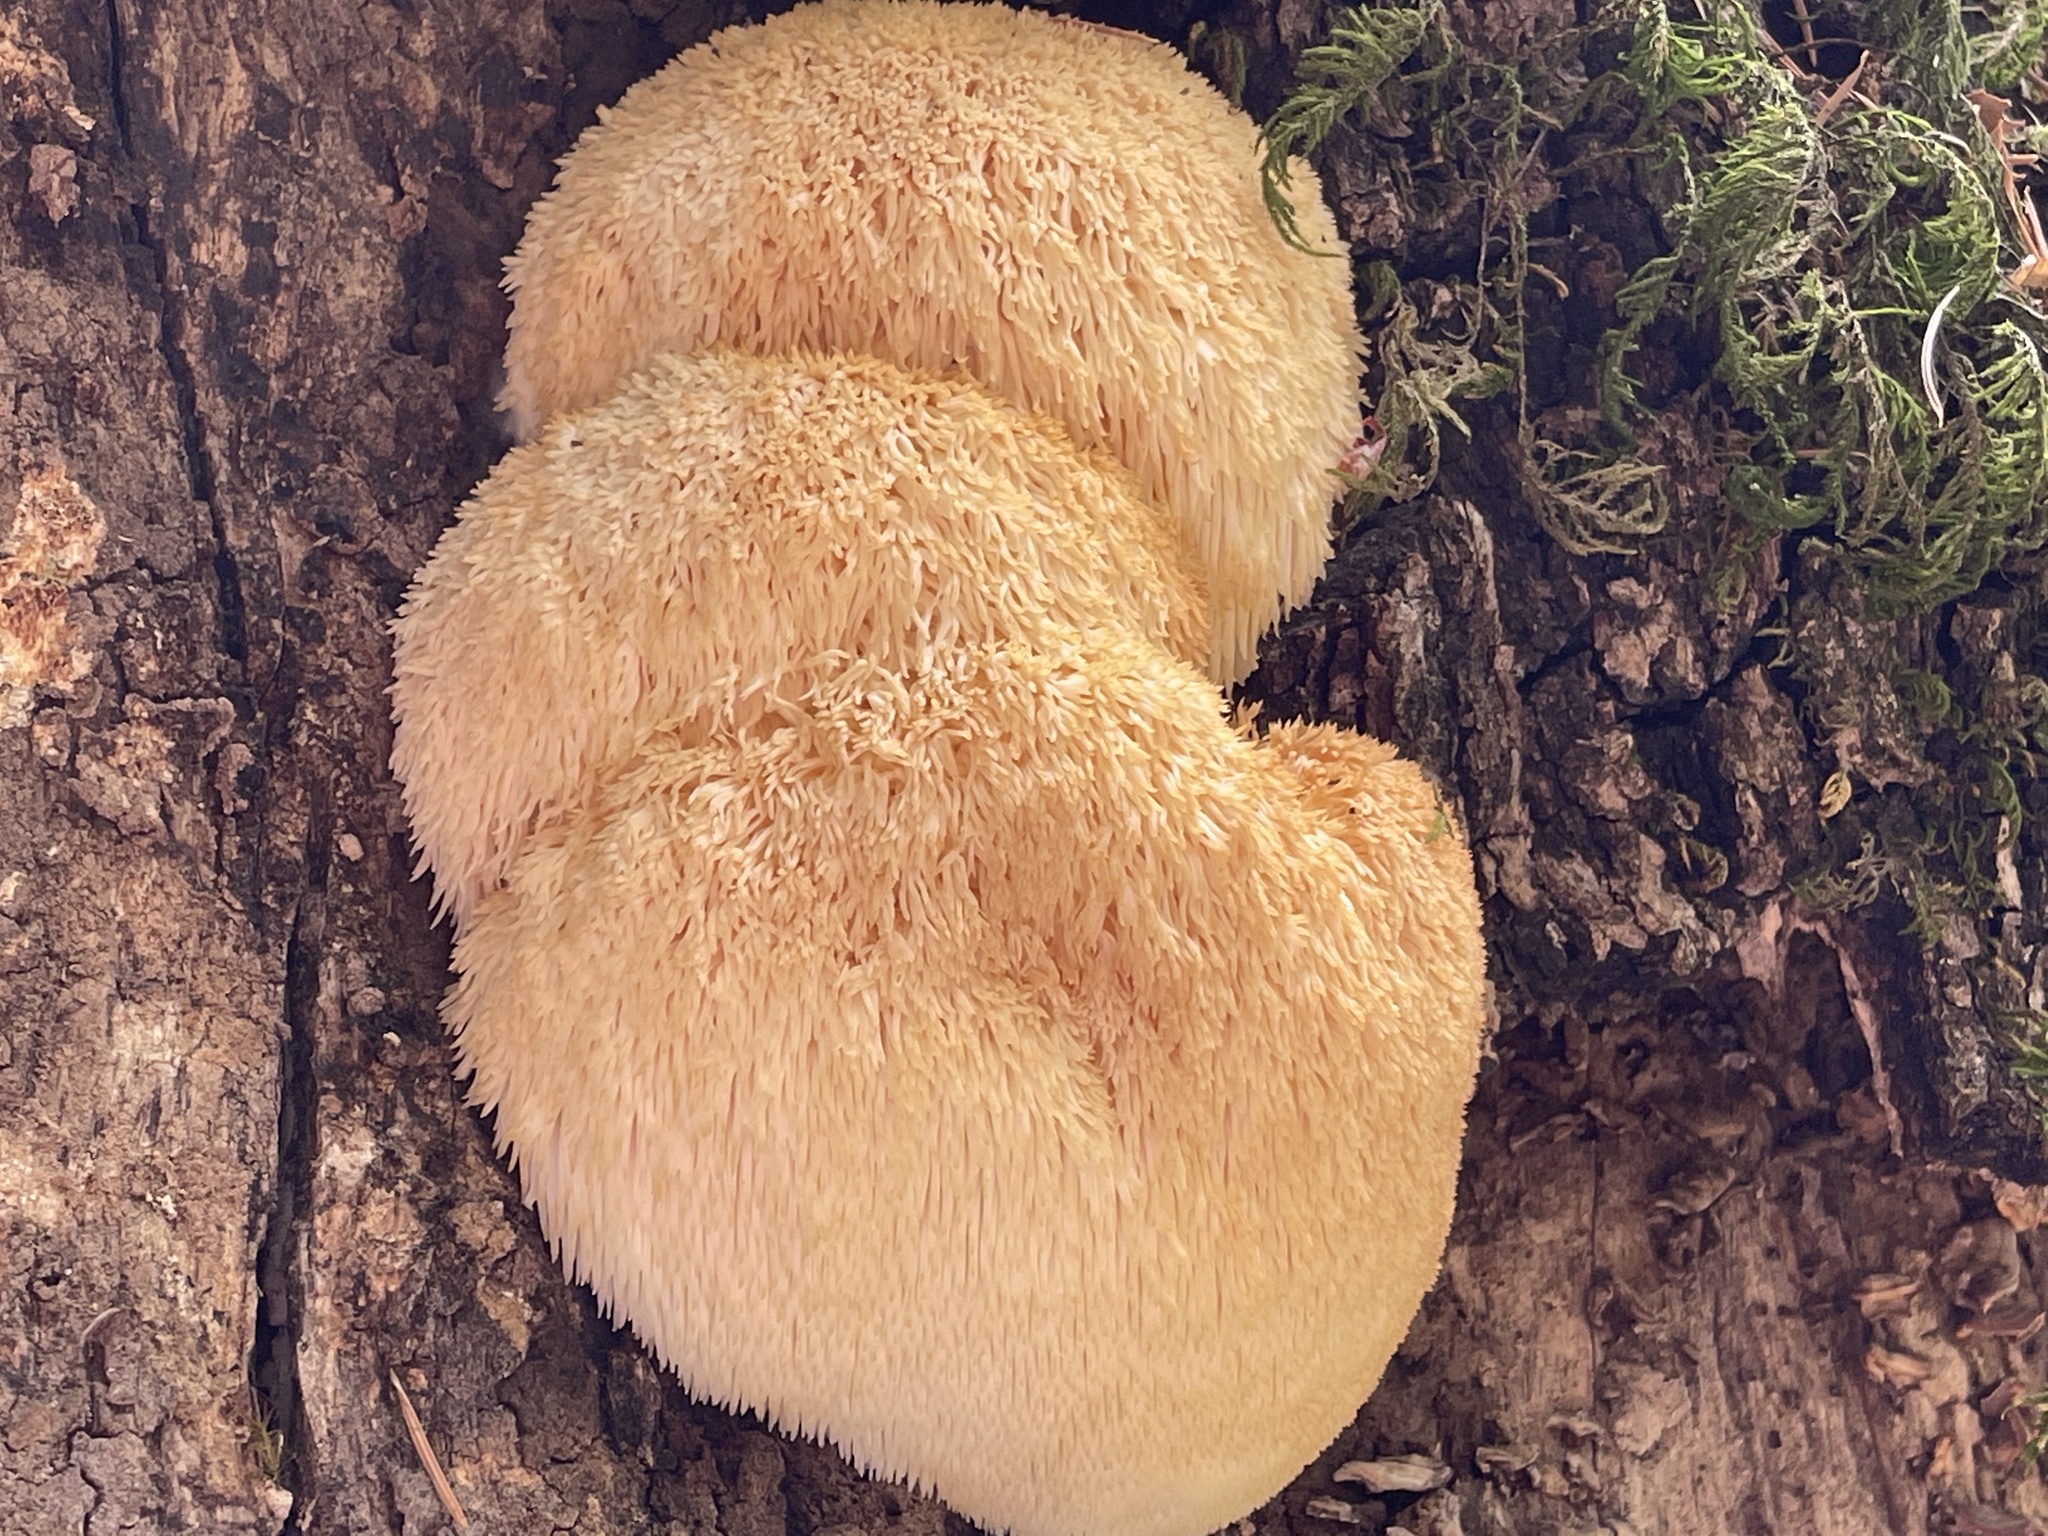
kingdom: Fungi
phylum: Basidiomycota
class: Agaricomycetes
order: Russulales
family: Hericiaceae
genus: Hericium
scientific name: Hericium erinaceus
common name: Bearded tooth
